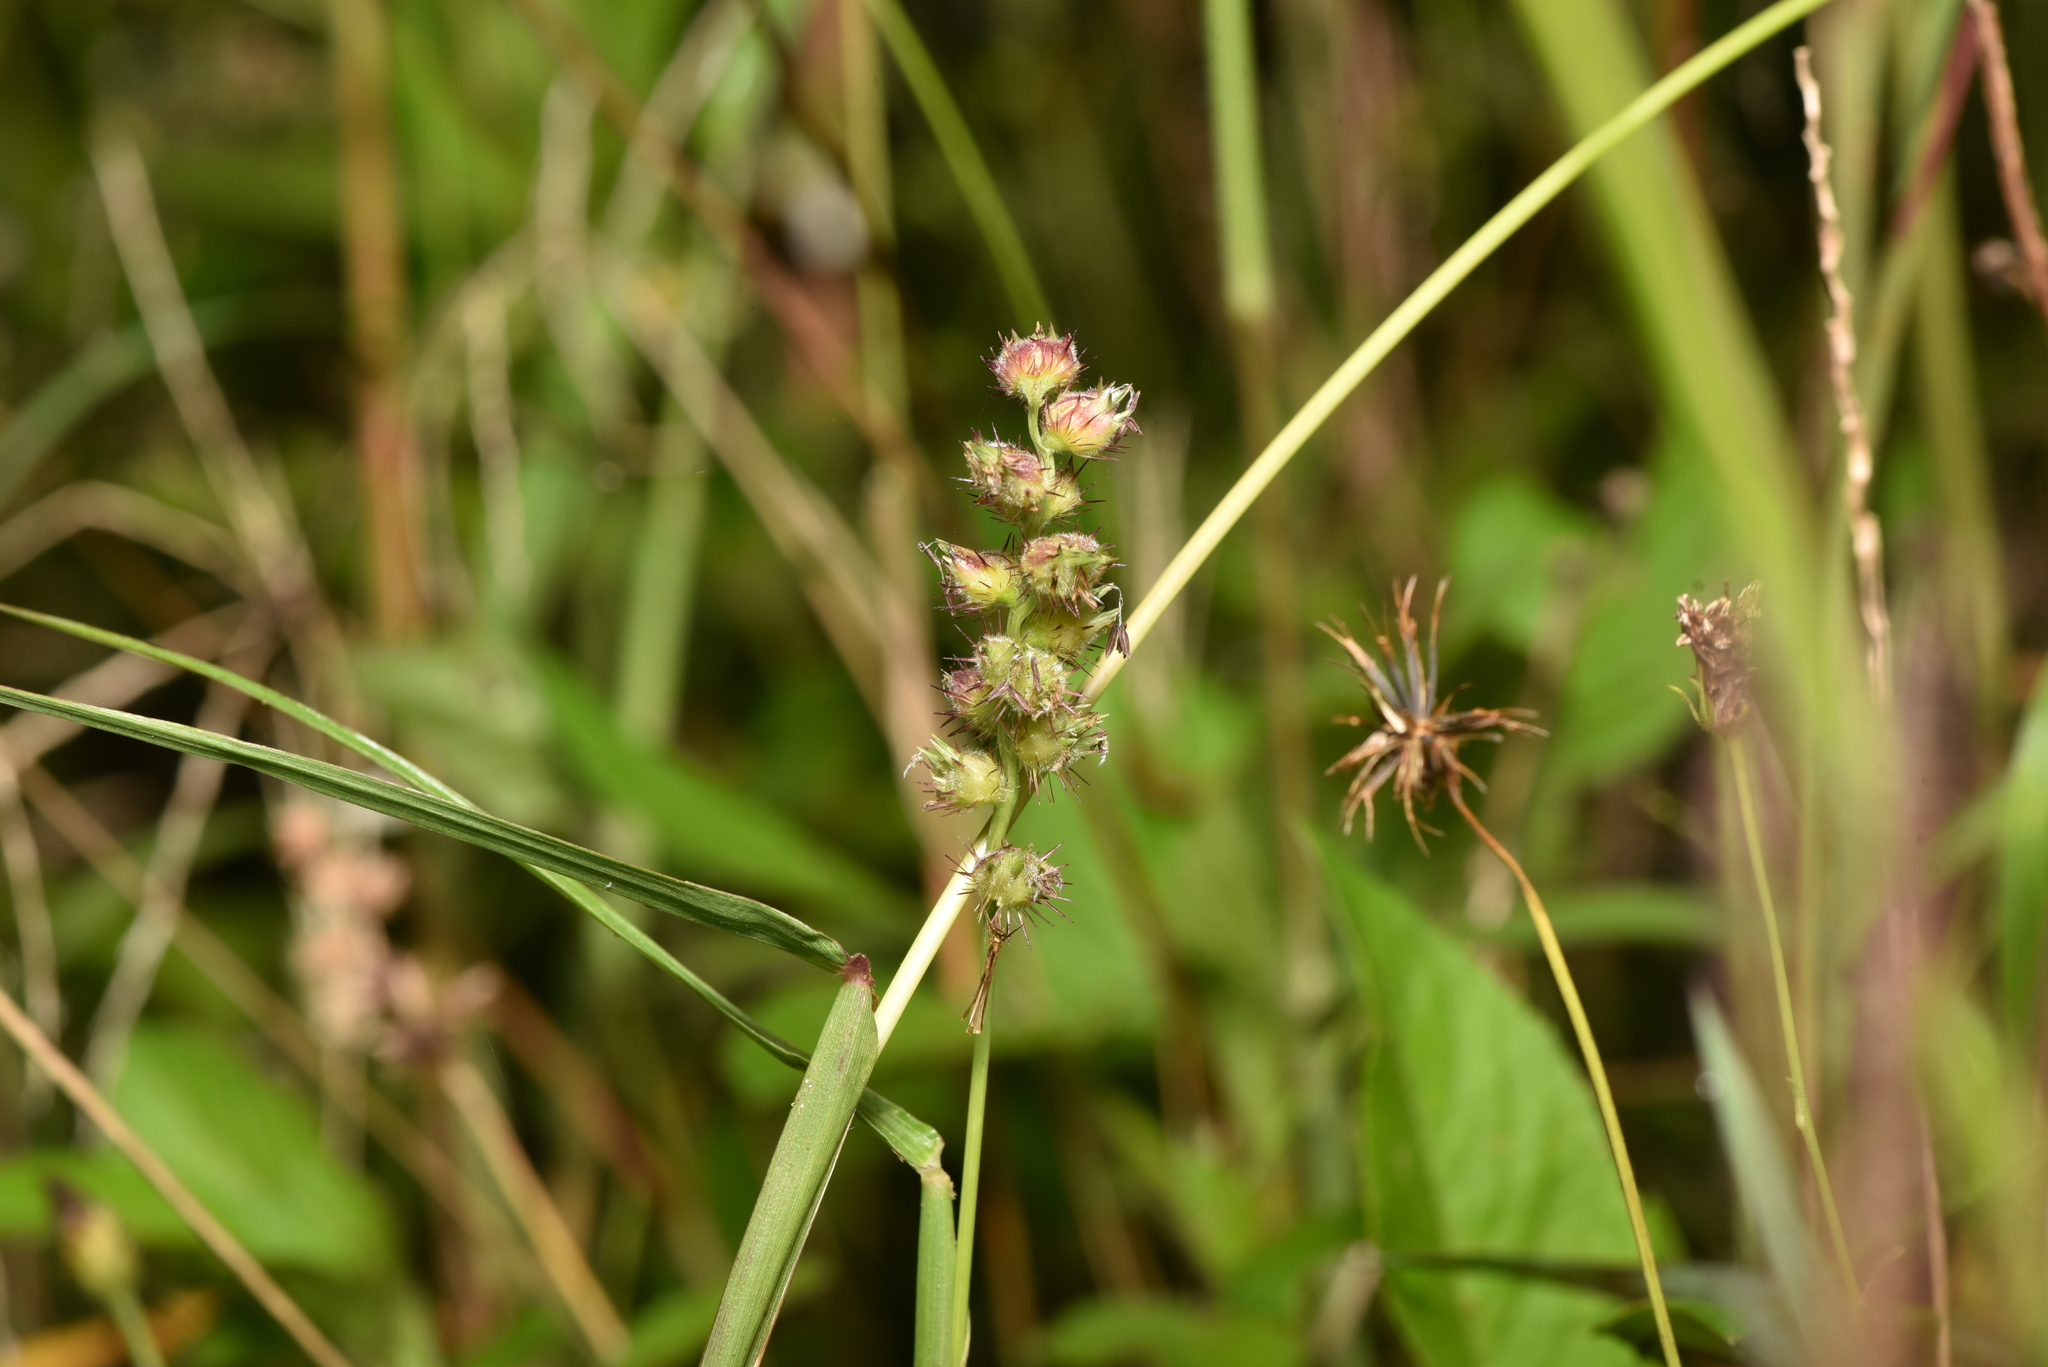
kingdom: Plantae
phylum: Tracheophyta
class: Liliopsida
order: Poales
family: Poaceae
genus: Cenchrus
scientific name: Cenchrus echinatus
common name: Southern sandbur
